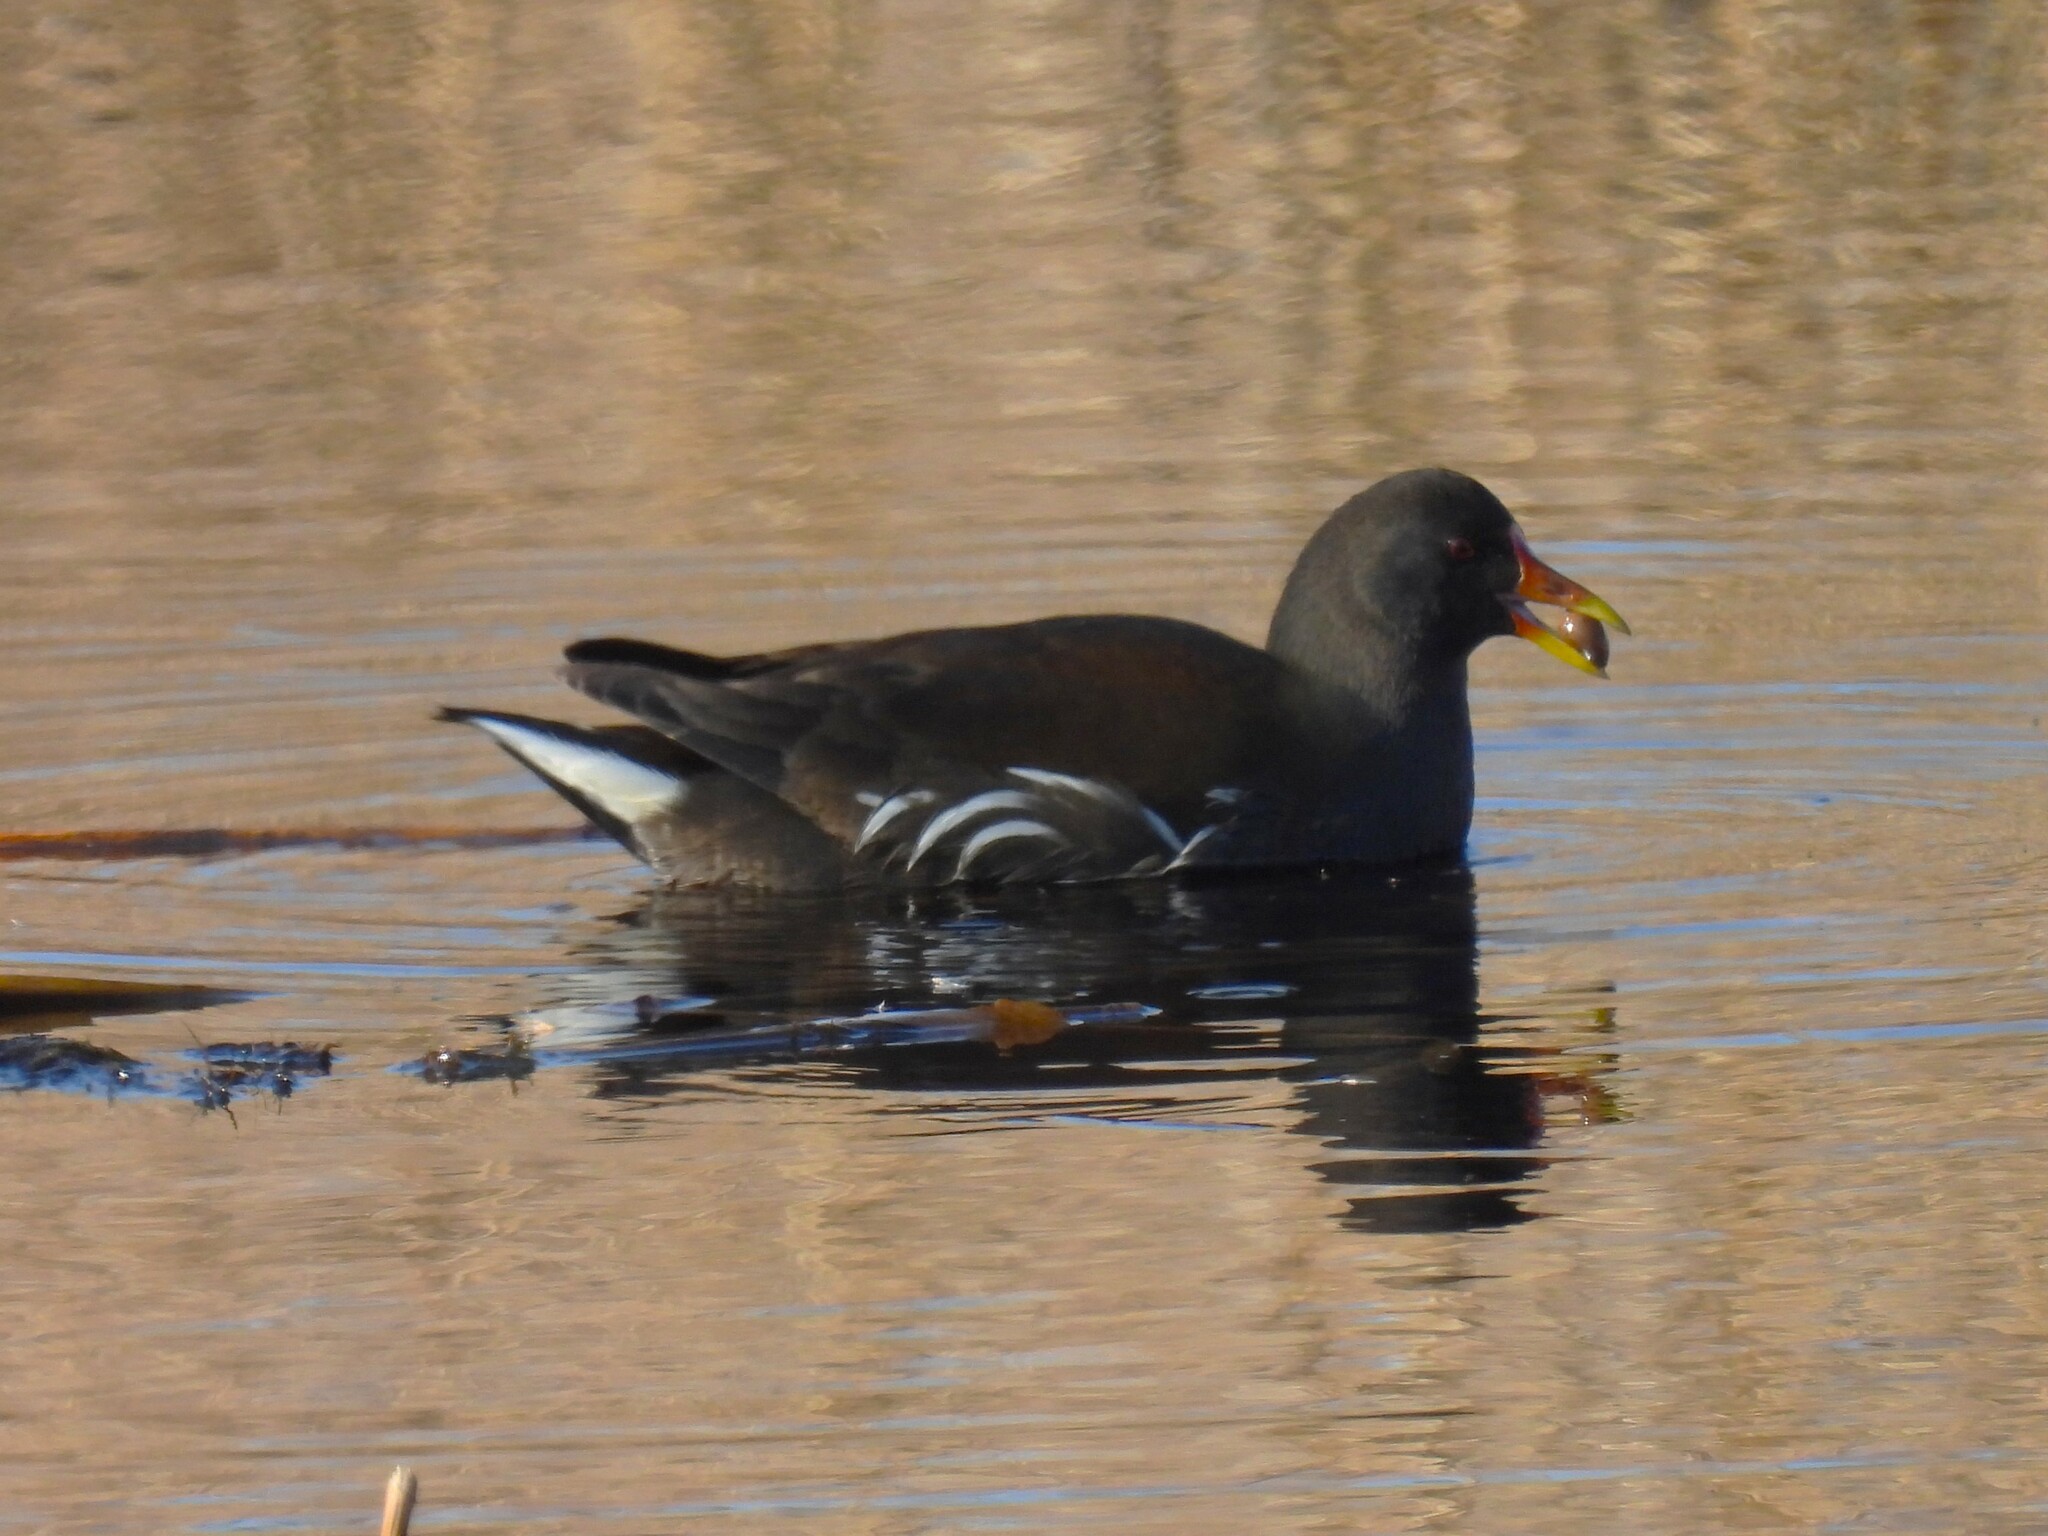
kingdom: Animalia
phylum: Chordata
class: Aves
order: Gruiformes
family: Rallidae
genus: Gallinula
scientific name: Gallinula chloropus
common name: Common moorhen
